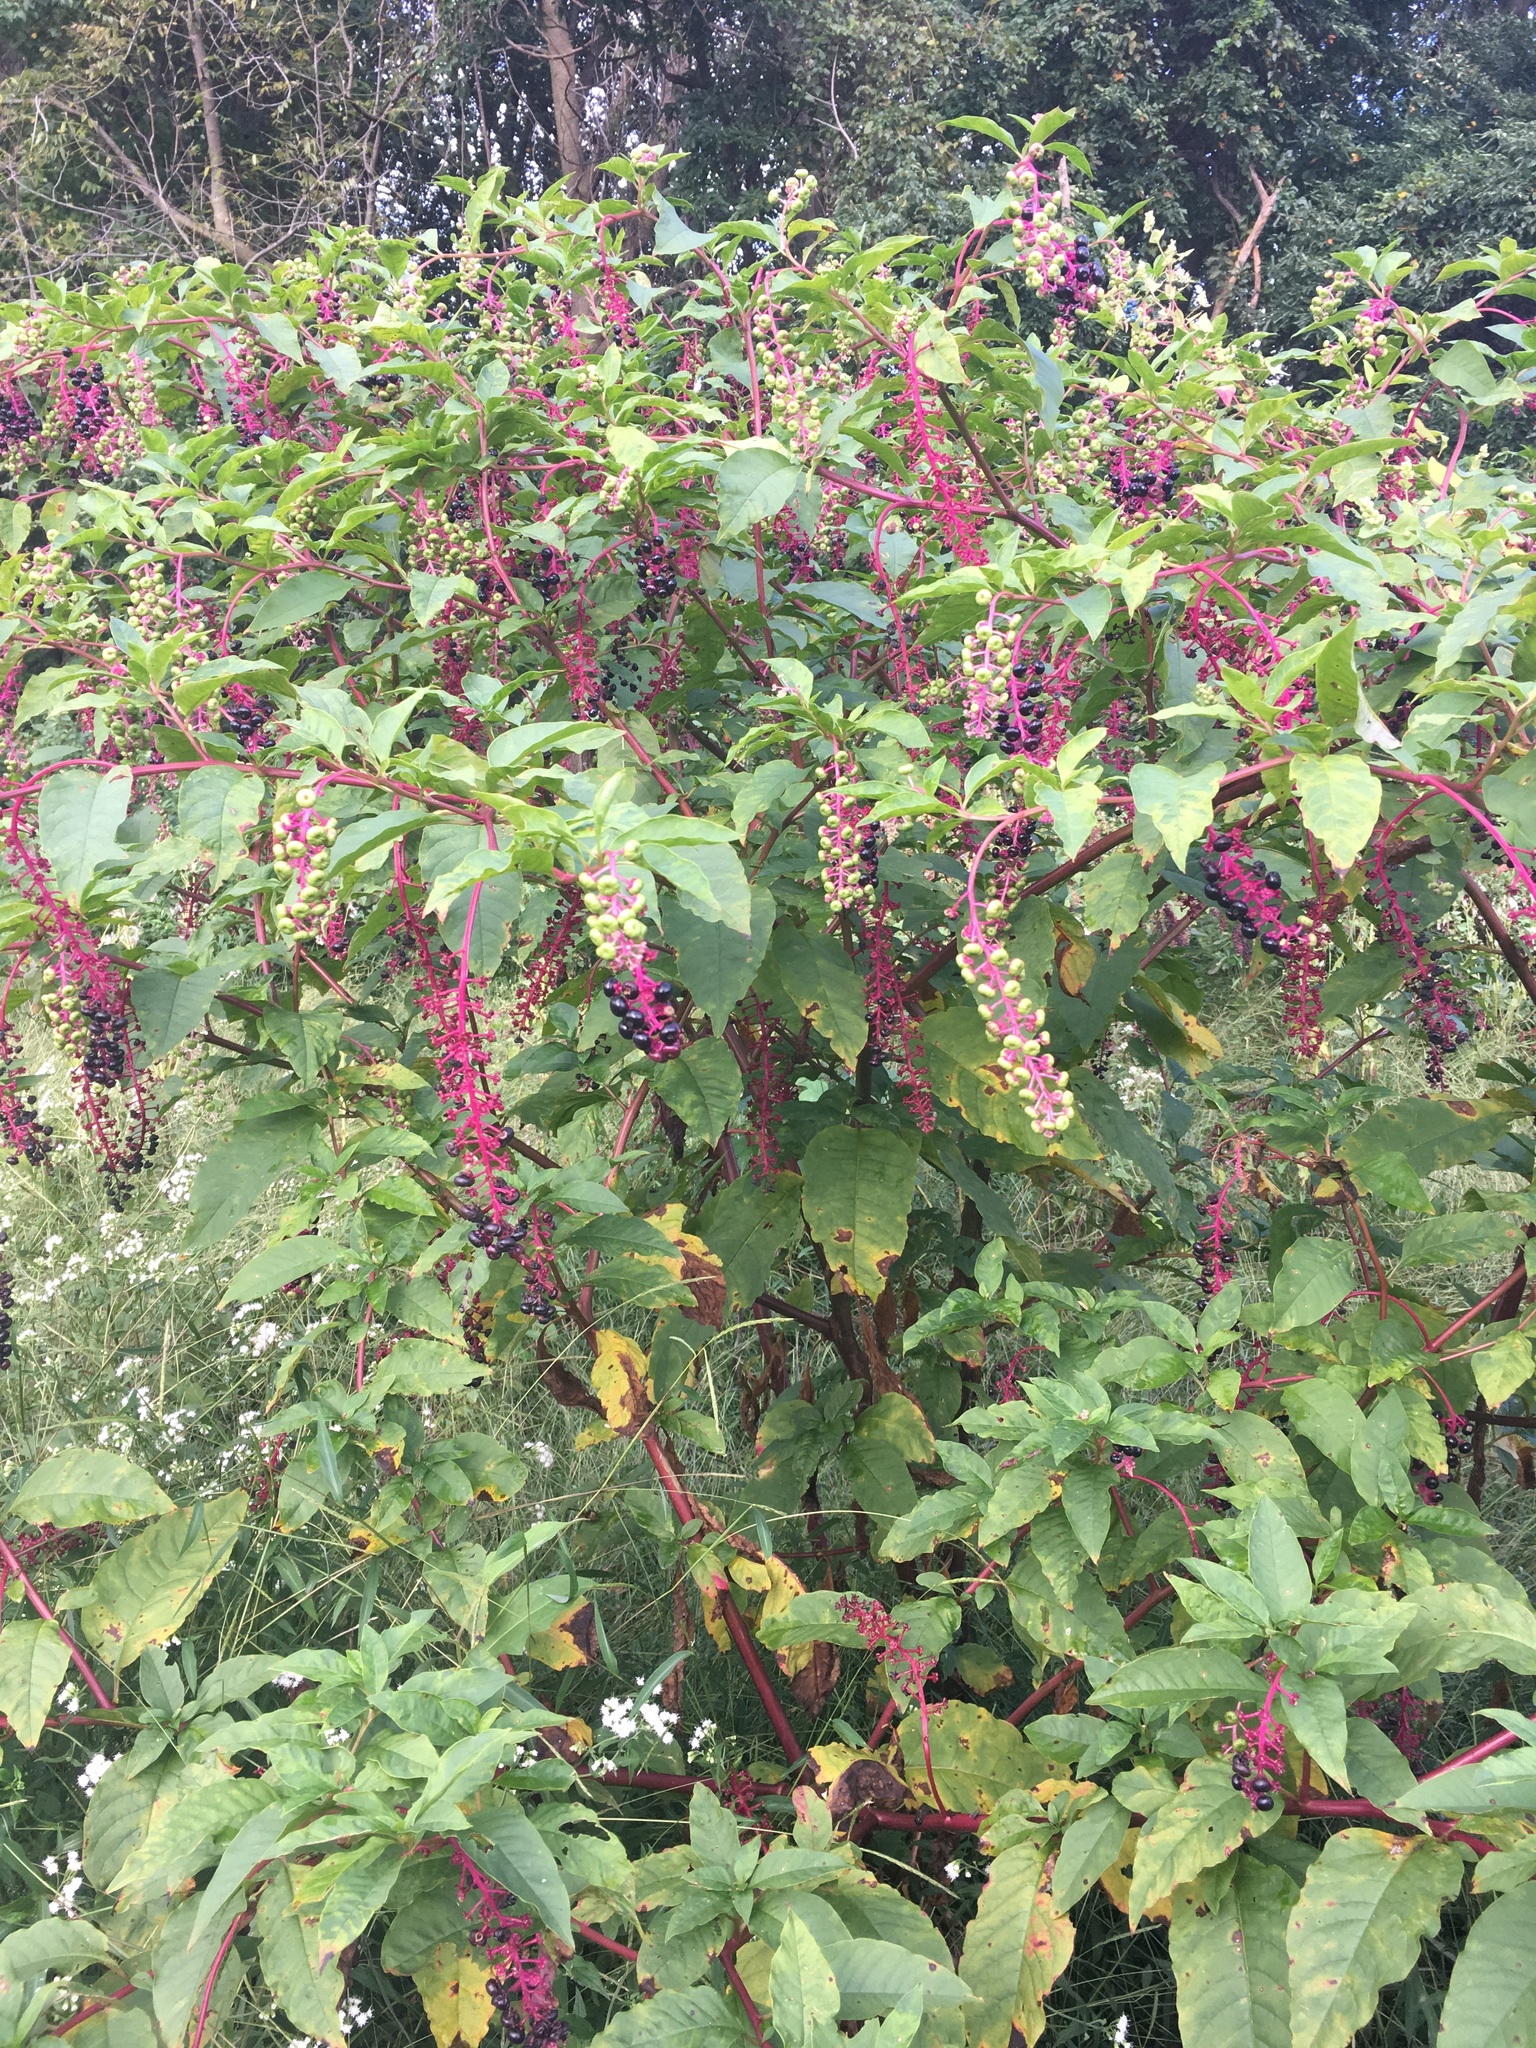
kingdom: Plantae
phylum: Tracheophyta
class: Magnoliopsida
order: Caryophyllales
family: Phytolaccaceae
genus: Phytolacca
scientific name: Phytolacca americana
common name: American pokeweed
